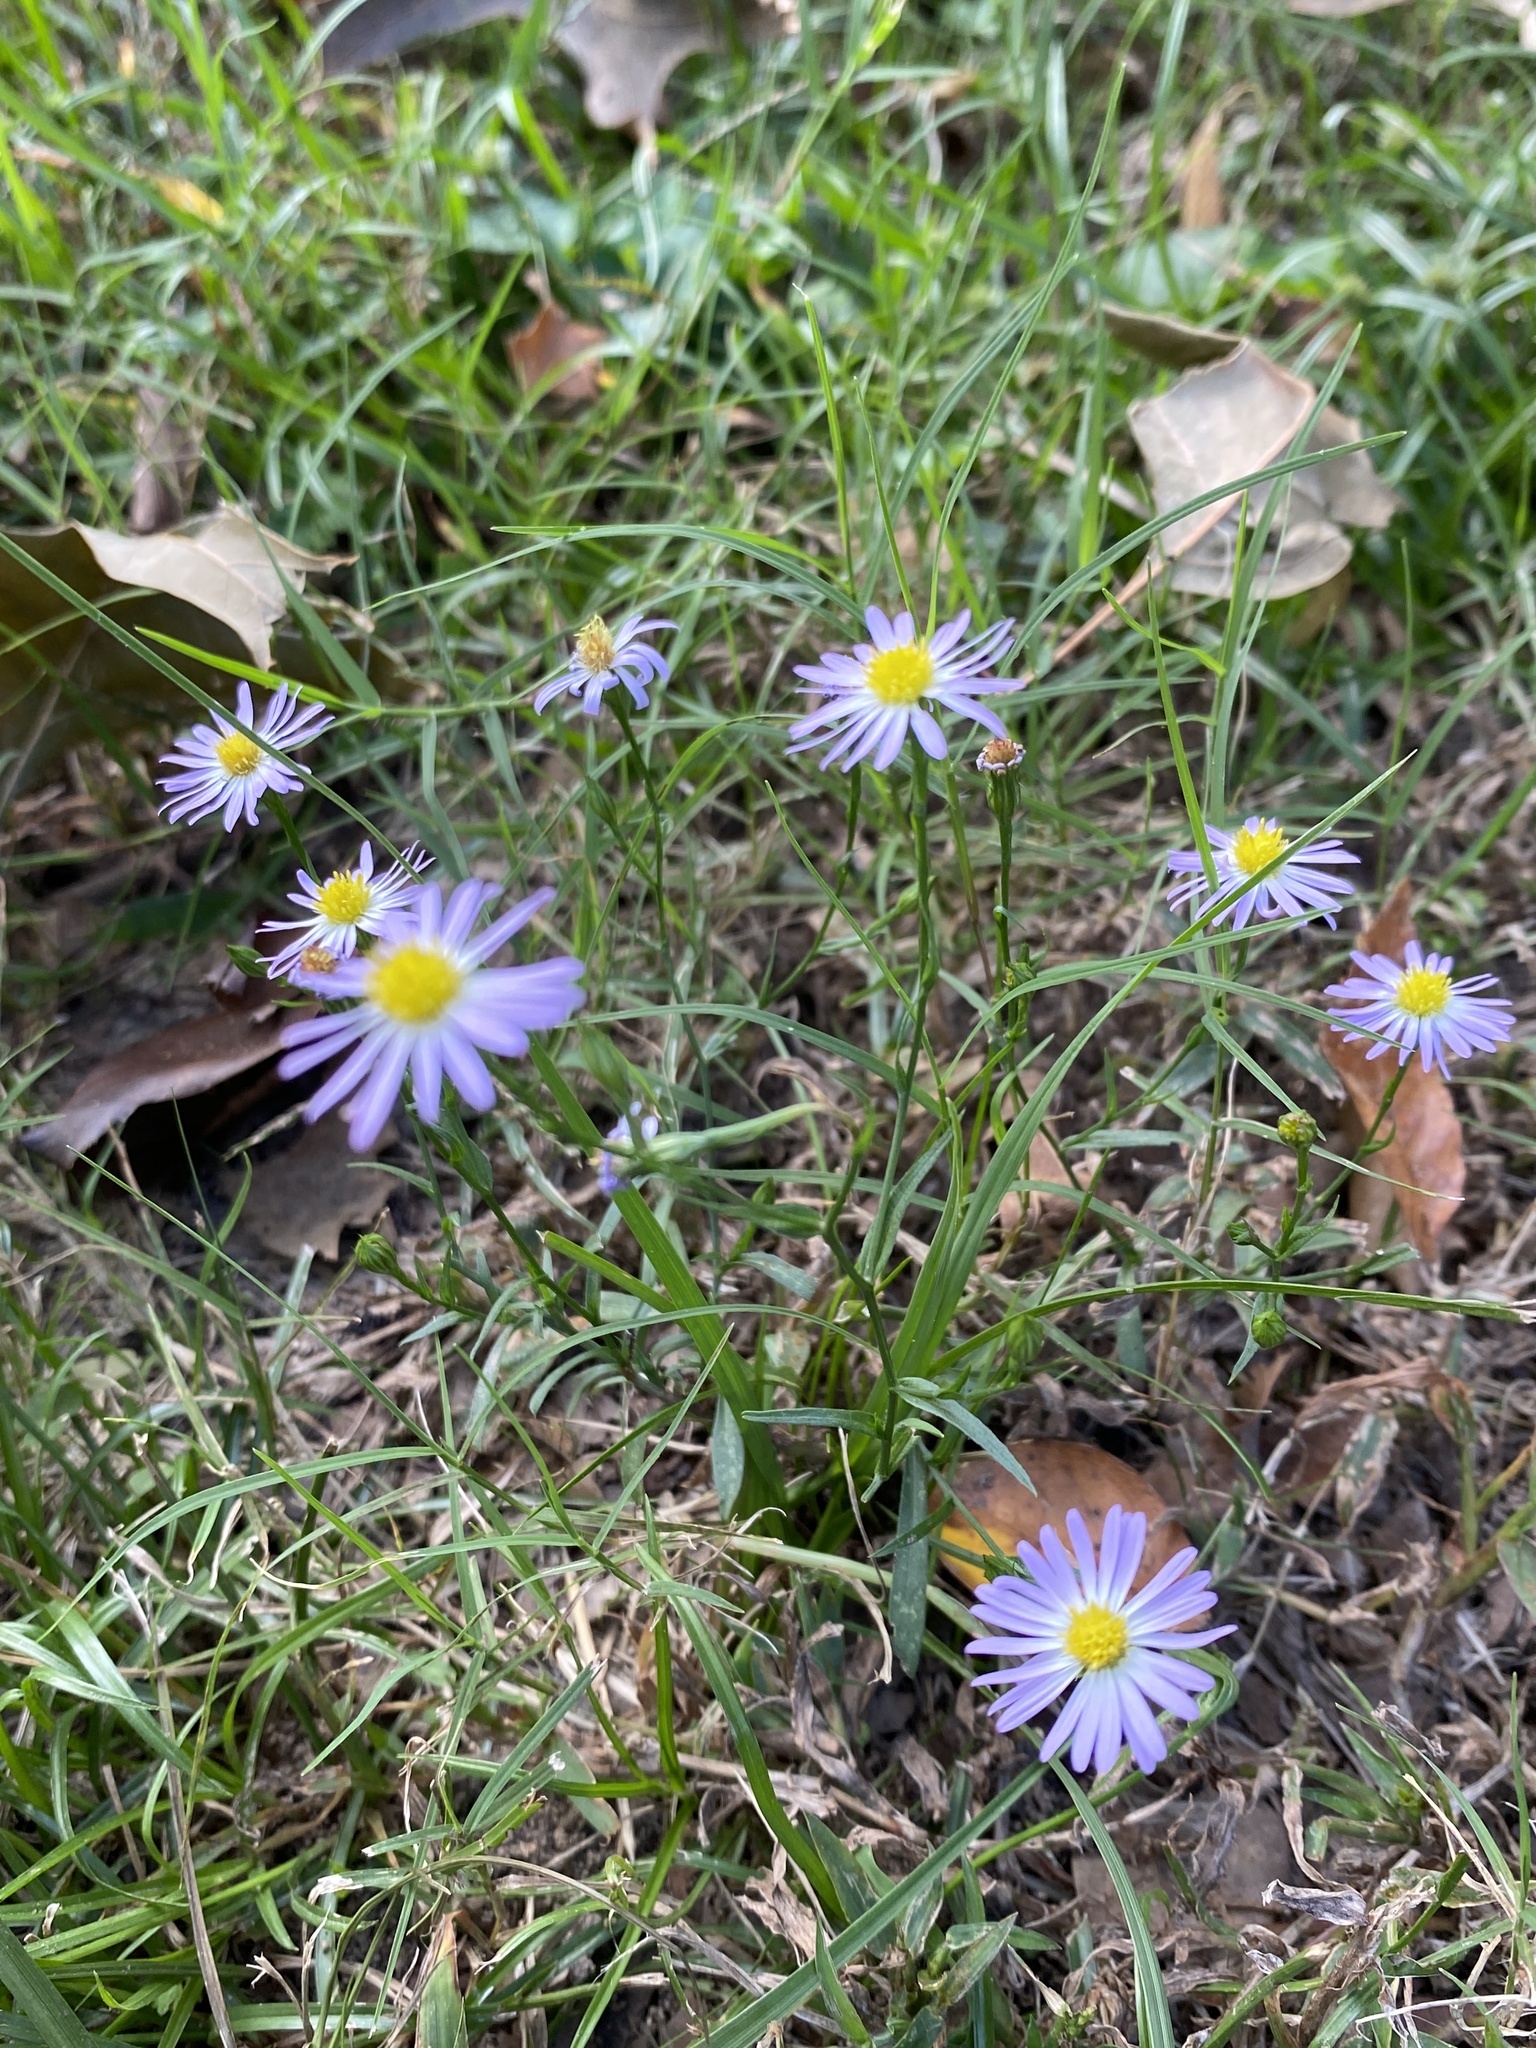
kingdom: Plantae
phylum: Tracheophyta
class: Magnoliopsida
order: Asterales
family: Asteraceae
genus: Symphyotrichum
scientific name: Symphyotrichum divaricatum
